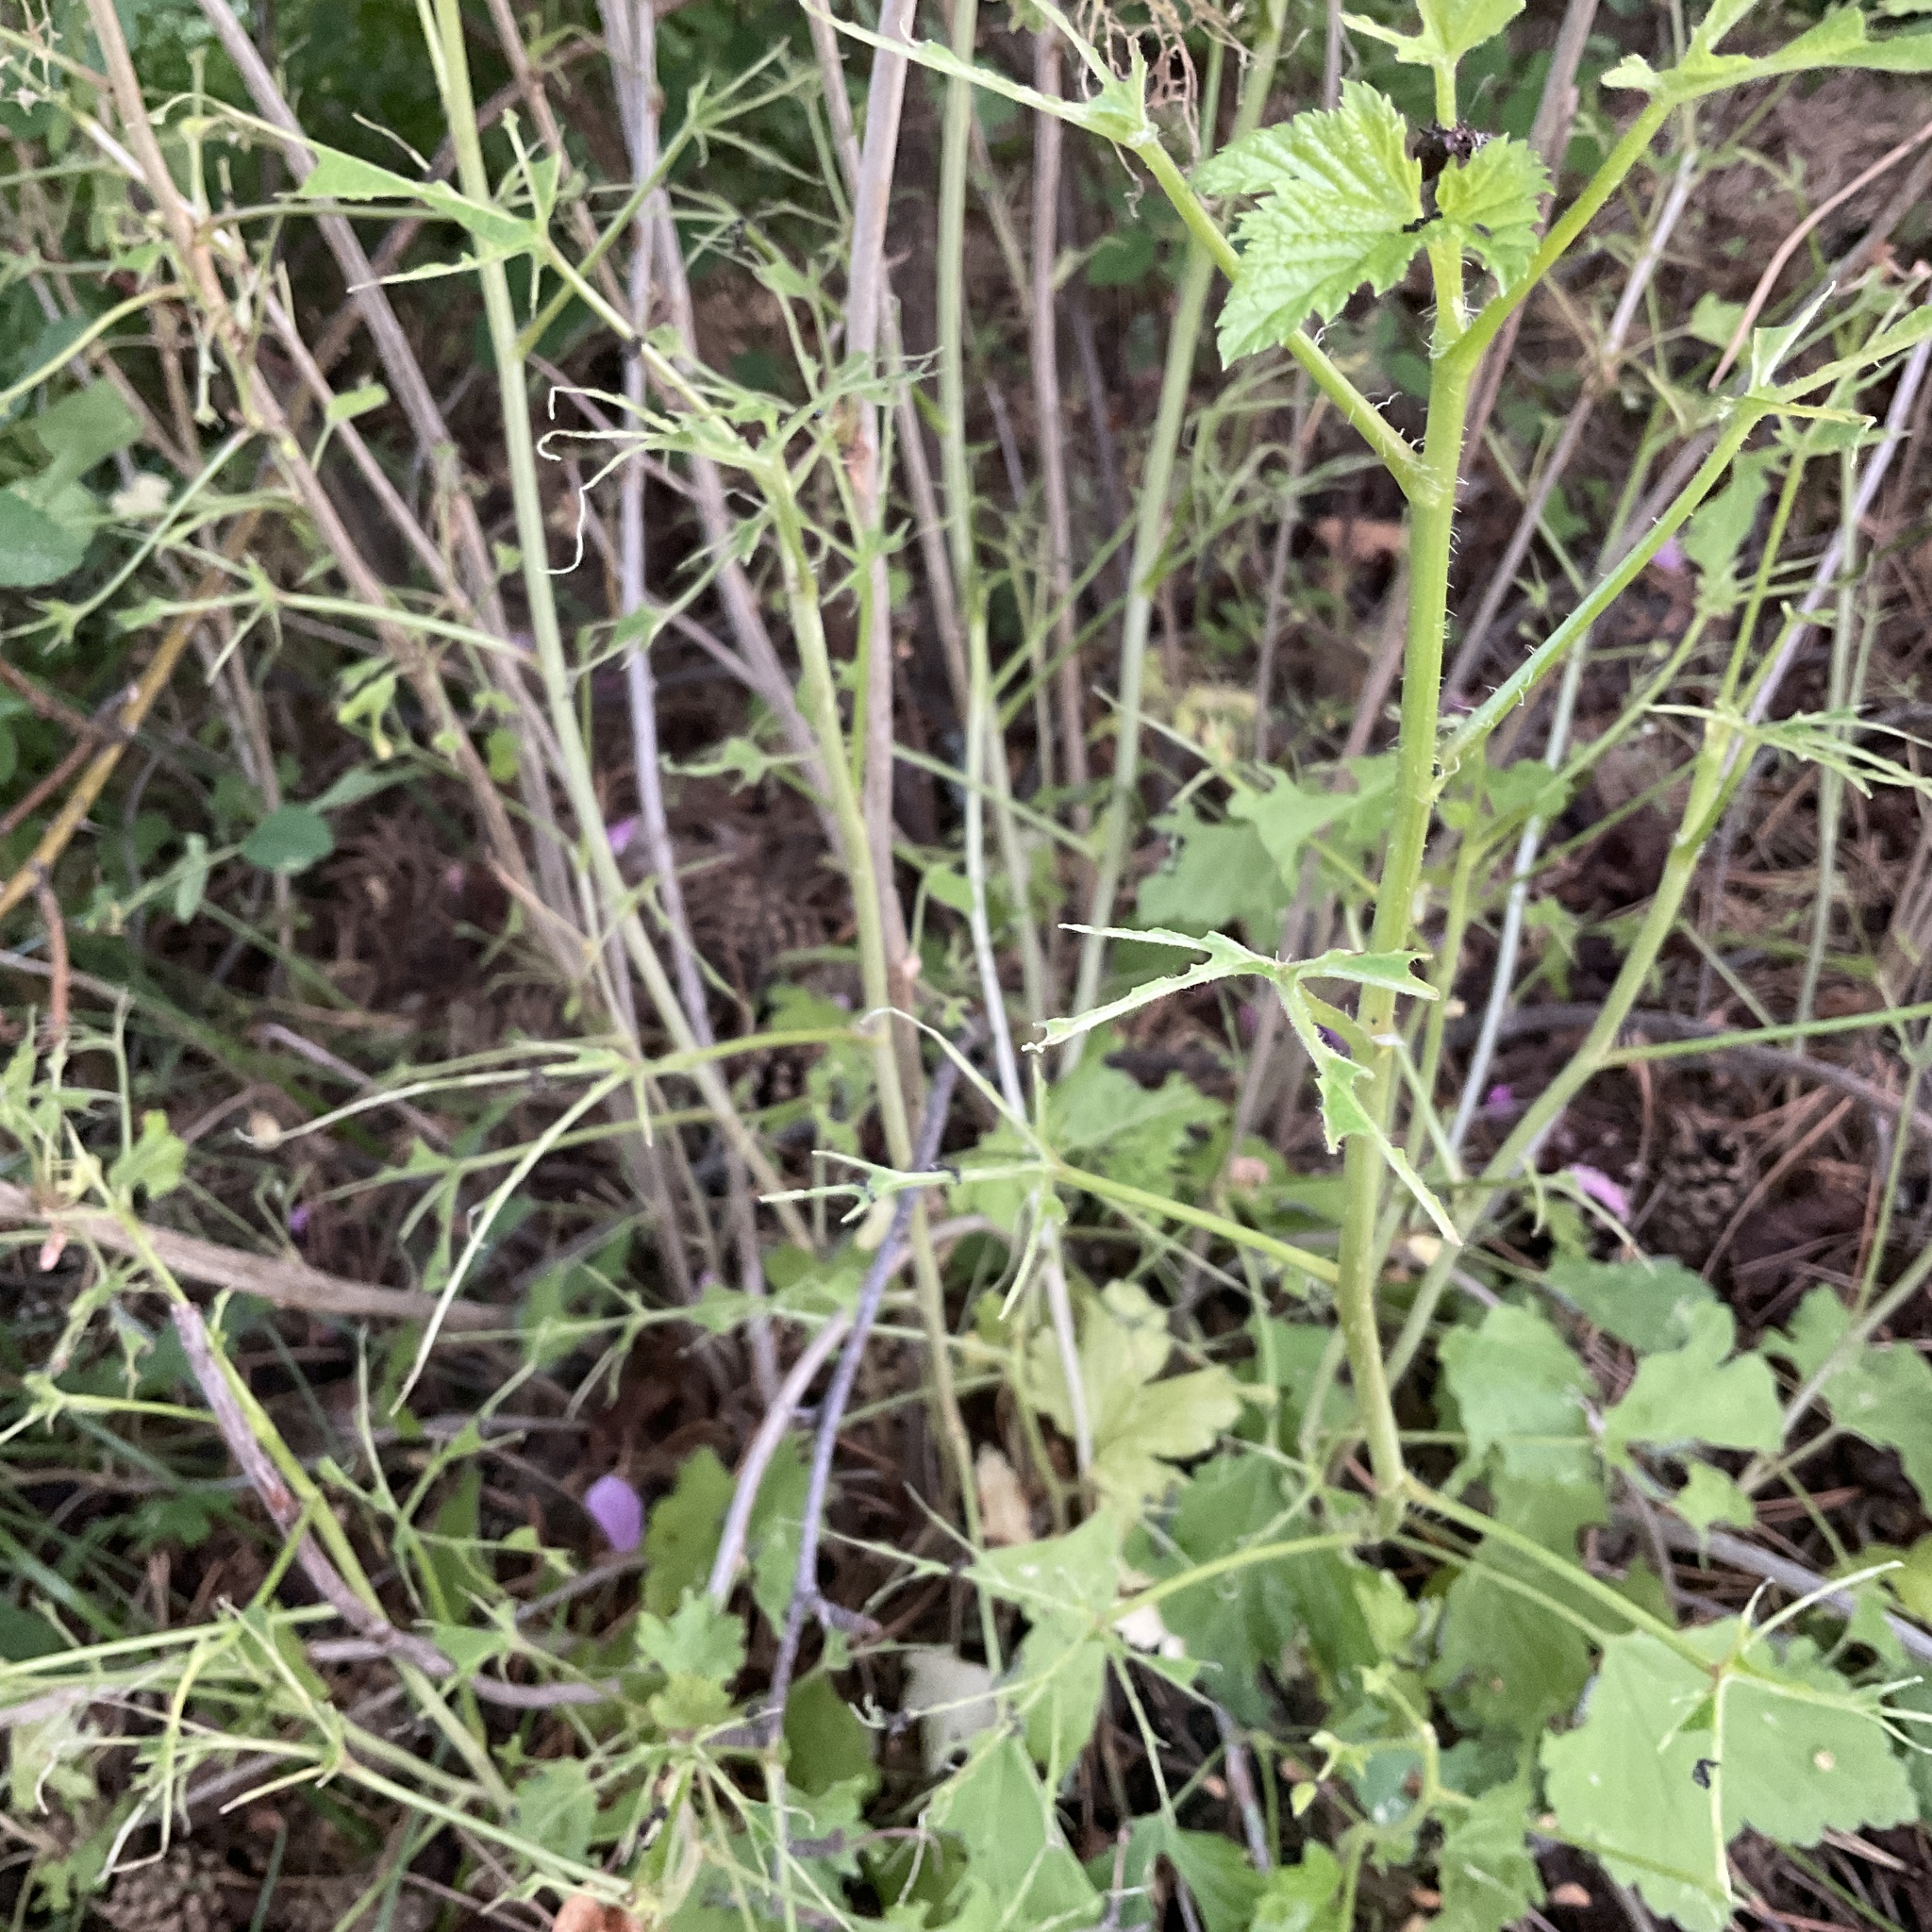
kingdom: Animalia
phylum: Arthropoda
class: Insecta
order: Hymenoptera
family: Tenthredinidae
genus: Nematus
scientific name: Nematus ribesii
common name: Imported currantworm
